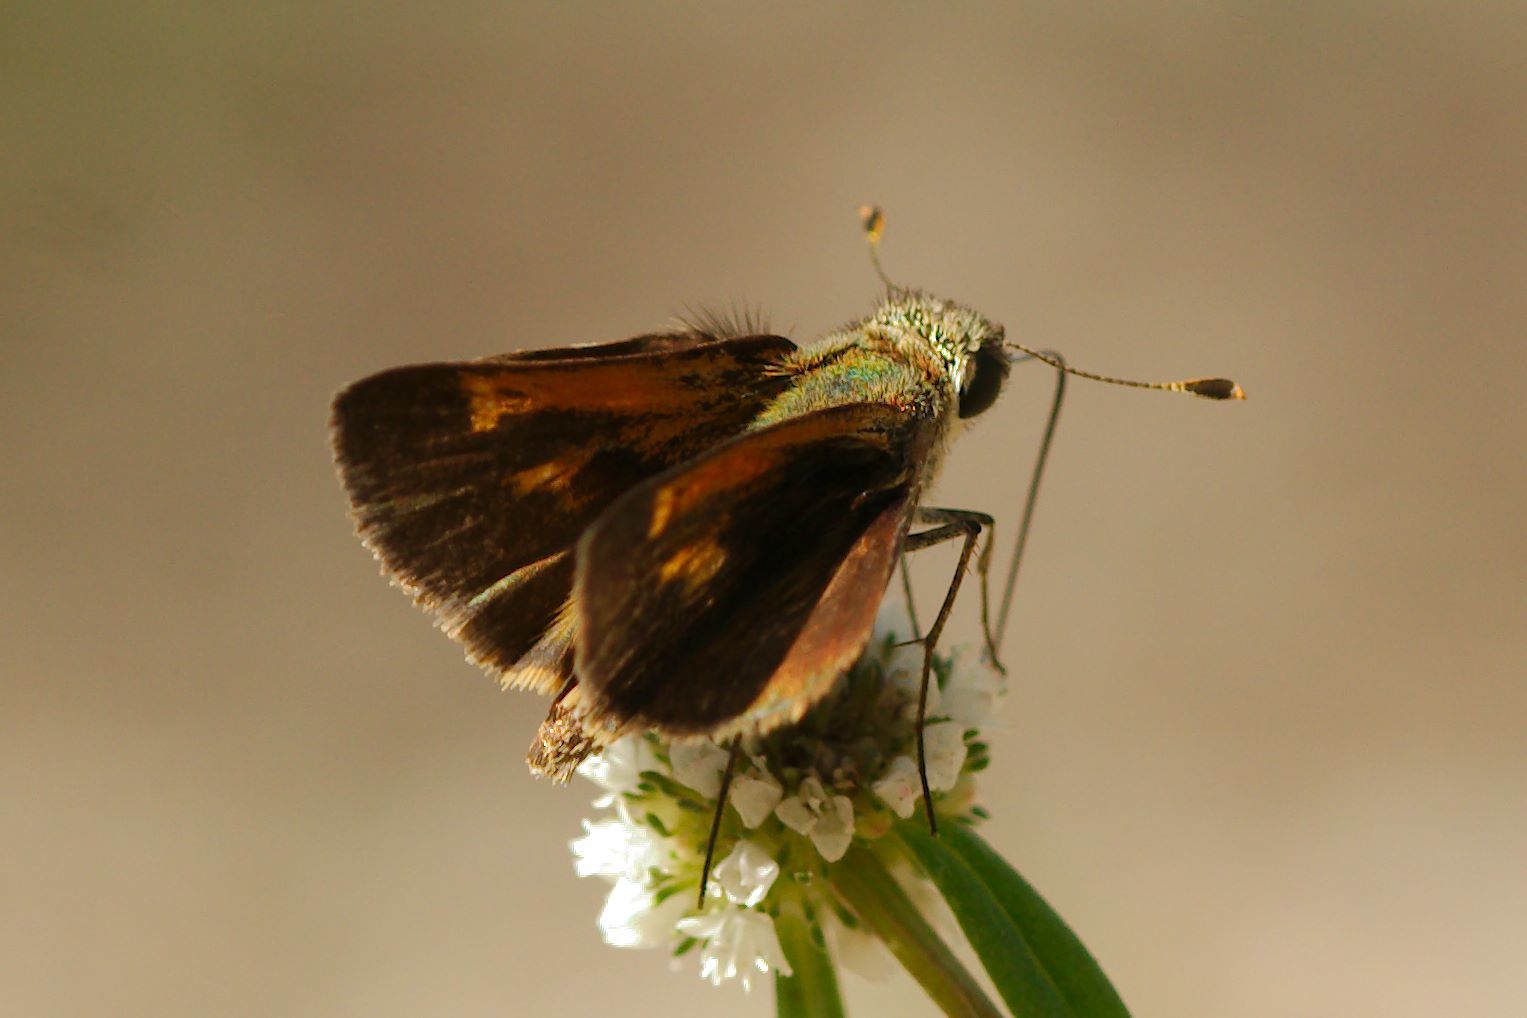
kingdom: Animalia
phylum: Arthropoda
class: Insecta
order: Lepidoptera
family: Hesperiidae
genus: Polites
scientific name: Polites baracoa
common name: Baracoa skipper
